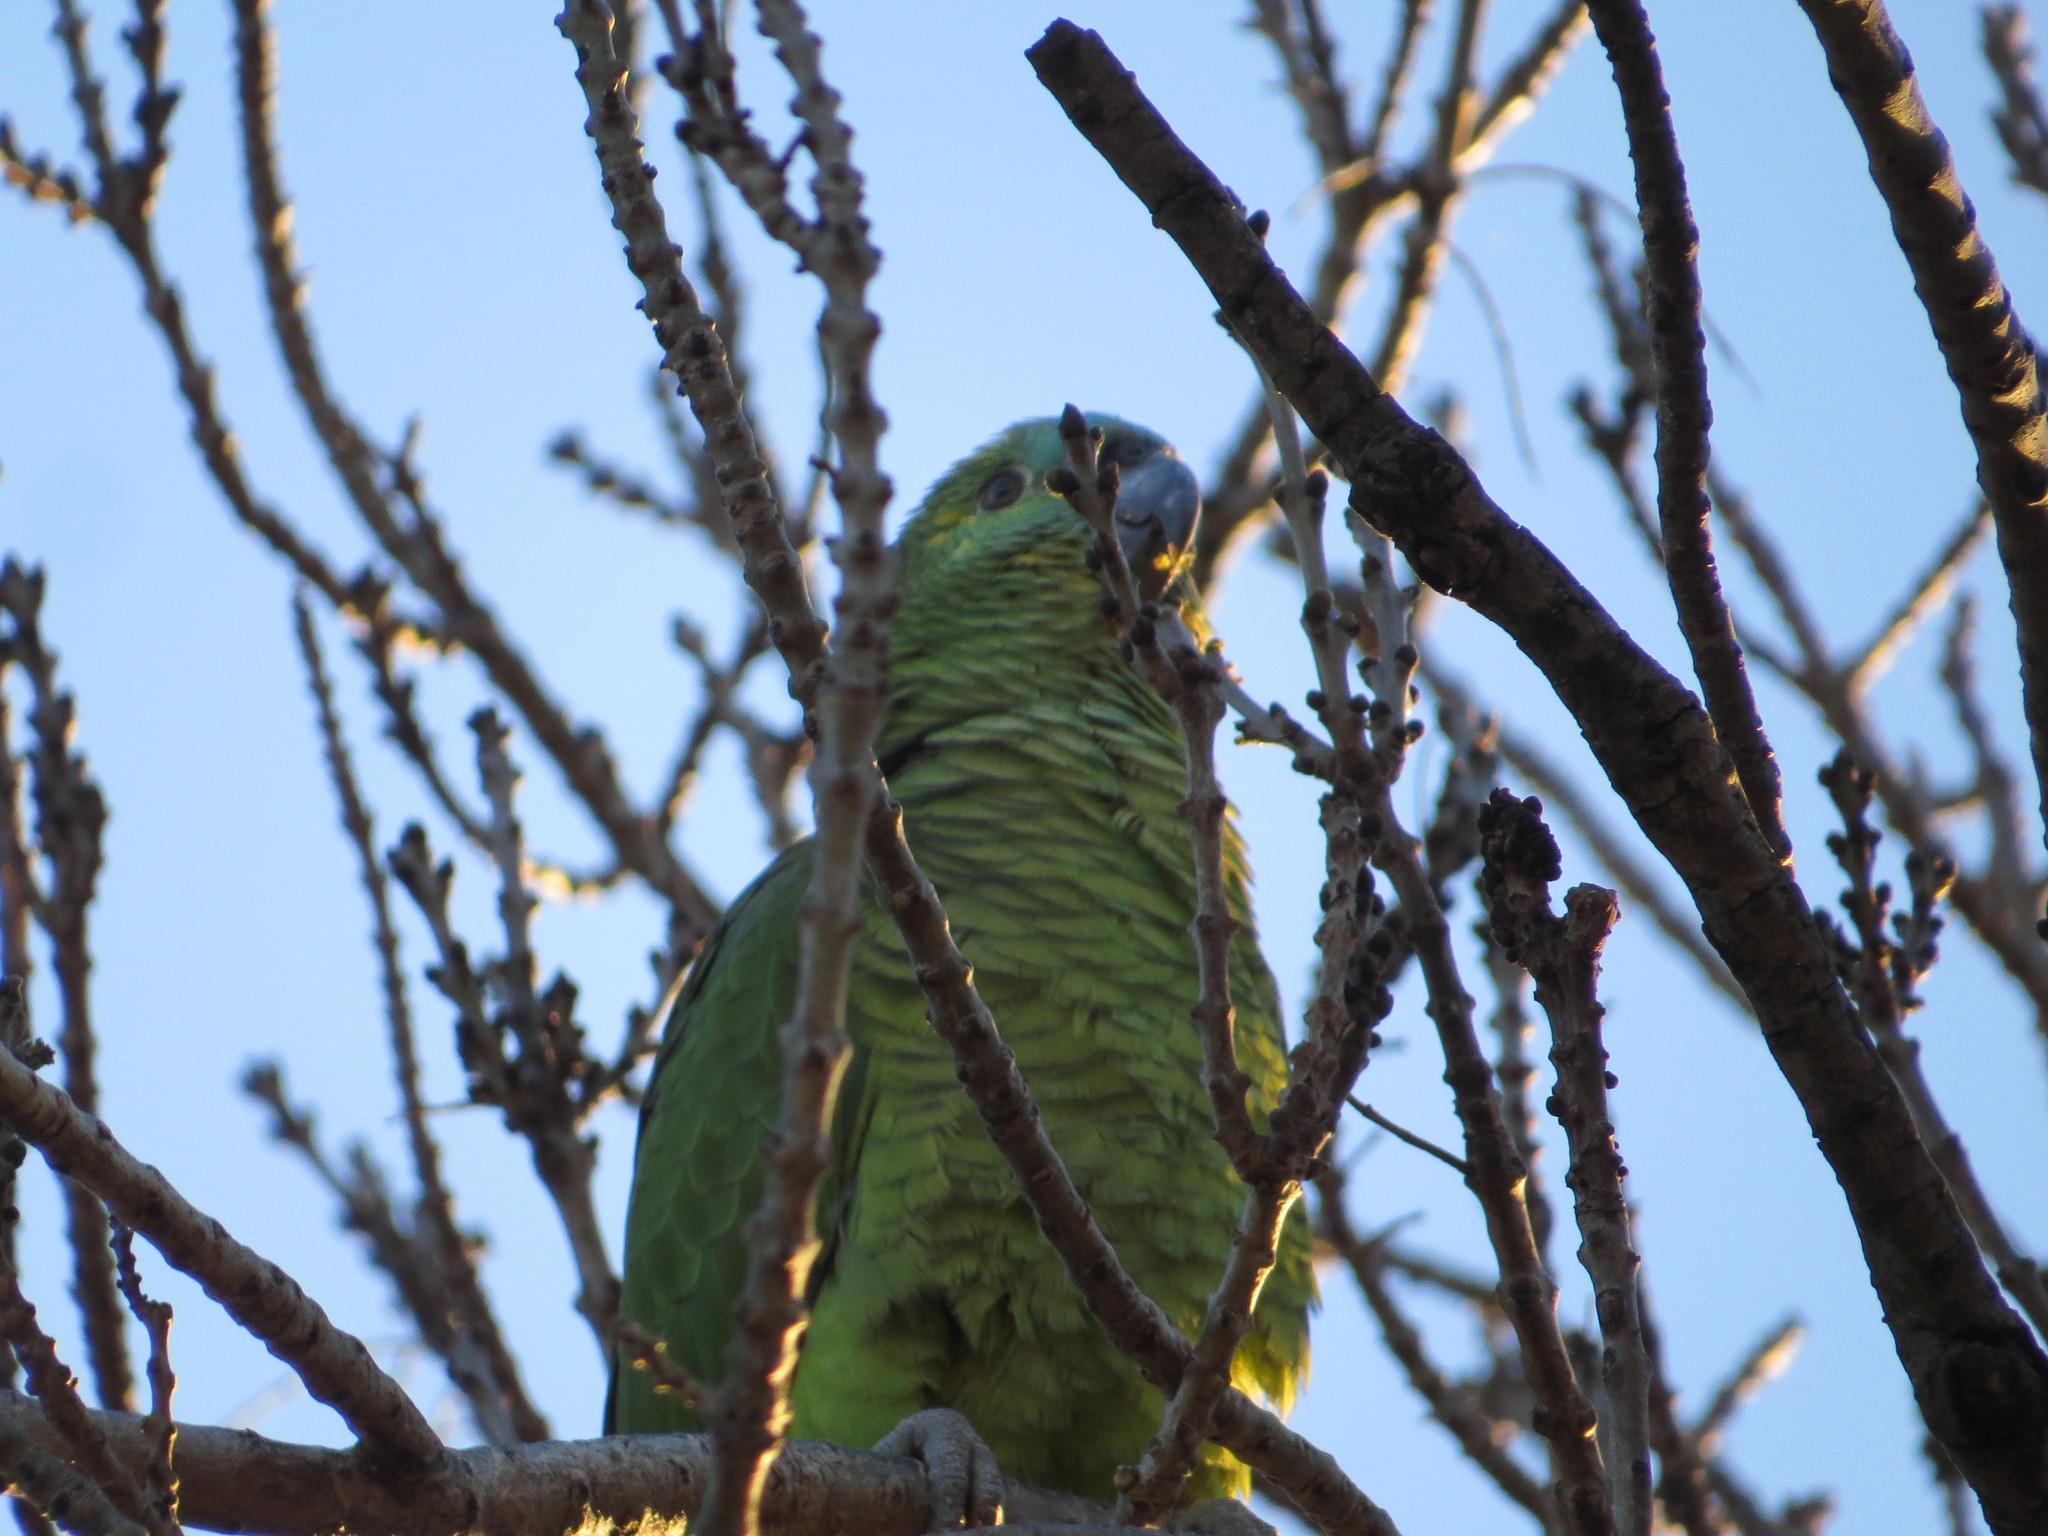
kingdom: Animalia
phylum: Chordata
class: Aves
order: Psittaciformes
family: Psittacidae
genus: Amazona
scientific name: Amazona aestiva
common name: Turquoise-fronted amazon
